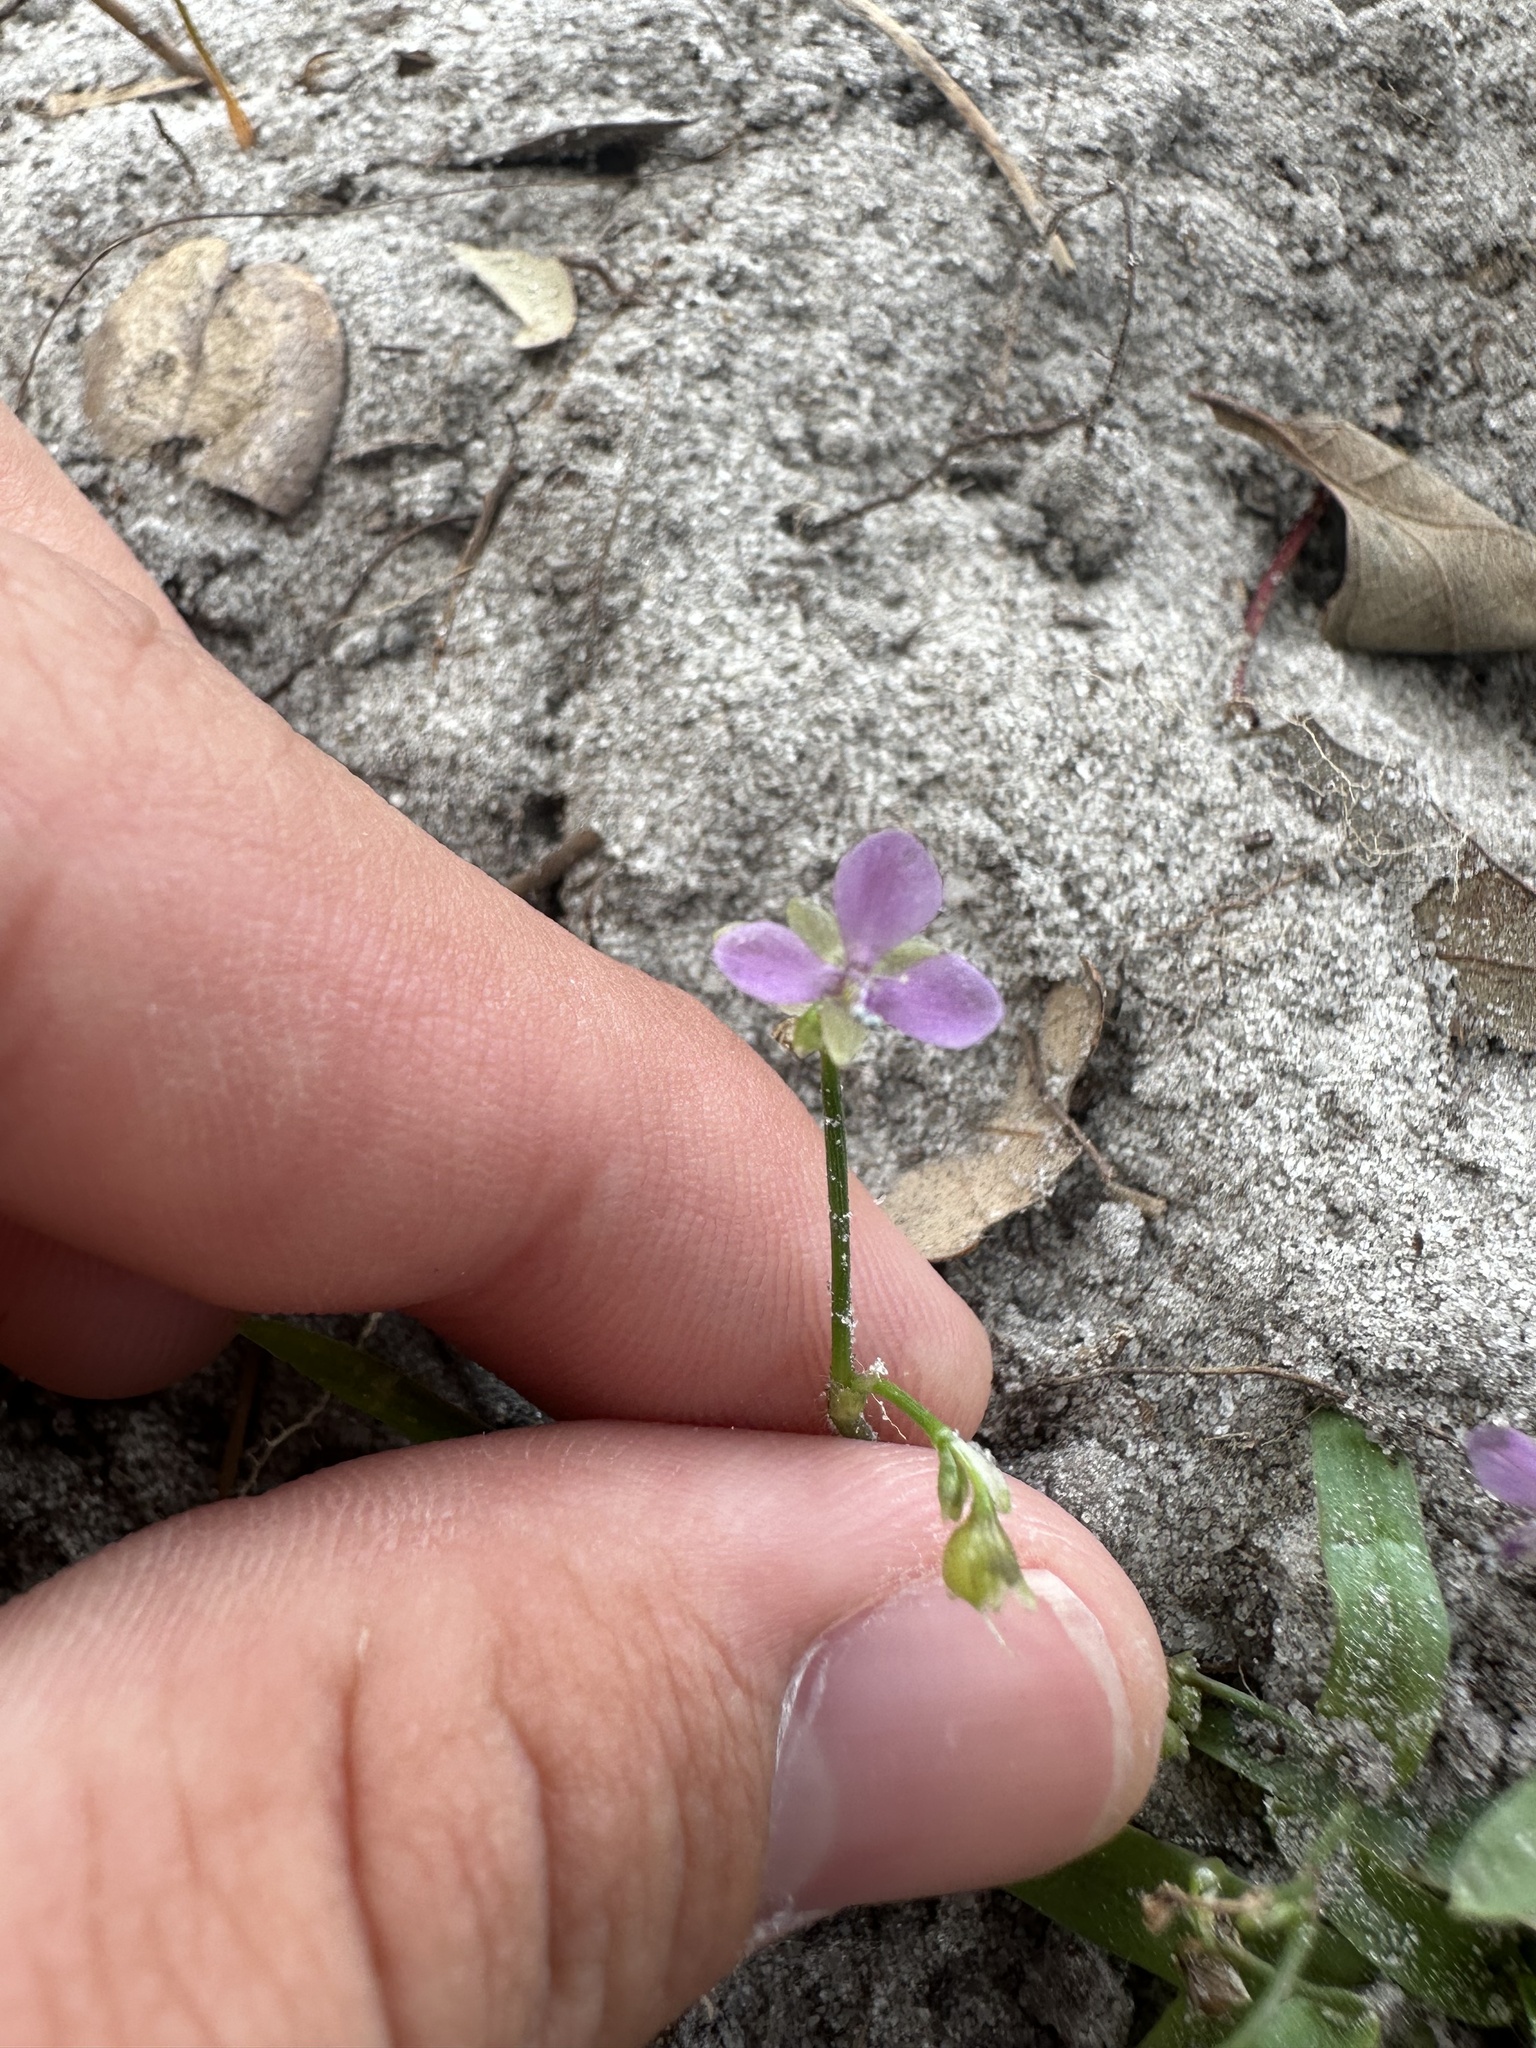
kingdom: Plantae
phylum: Tracheophyta
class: Liliopsida
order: Commelinales
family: Commelinaceae
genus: Murdannia
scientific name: Murdannia nudiflora
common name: Nakedstem dewflower
